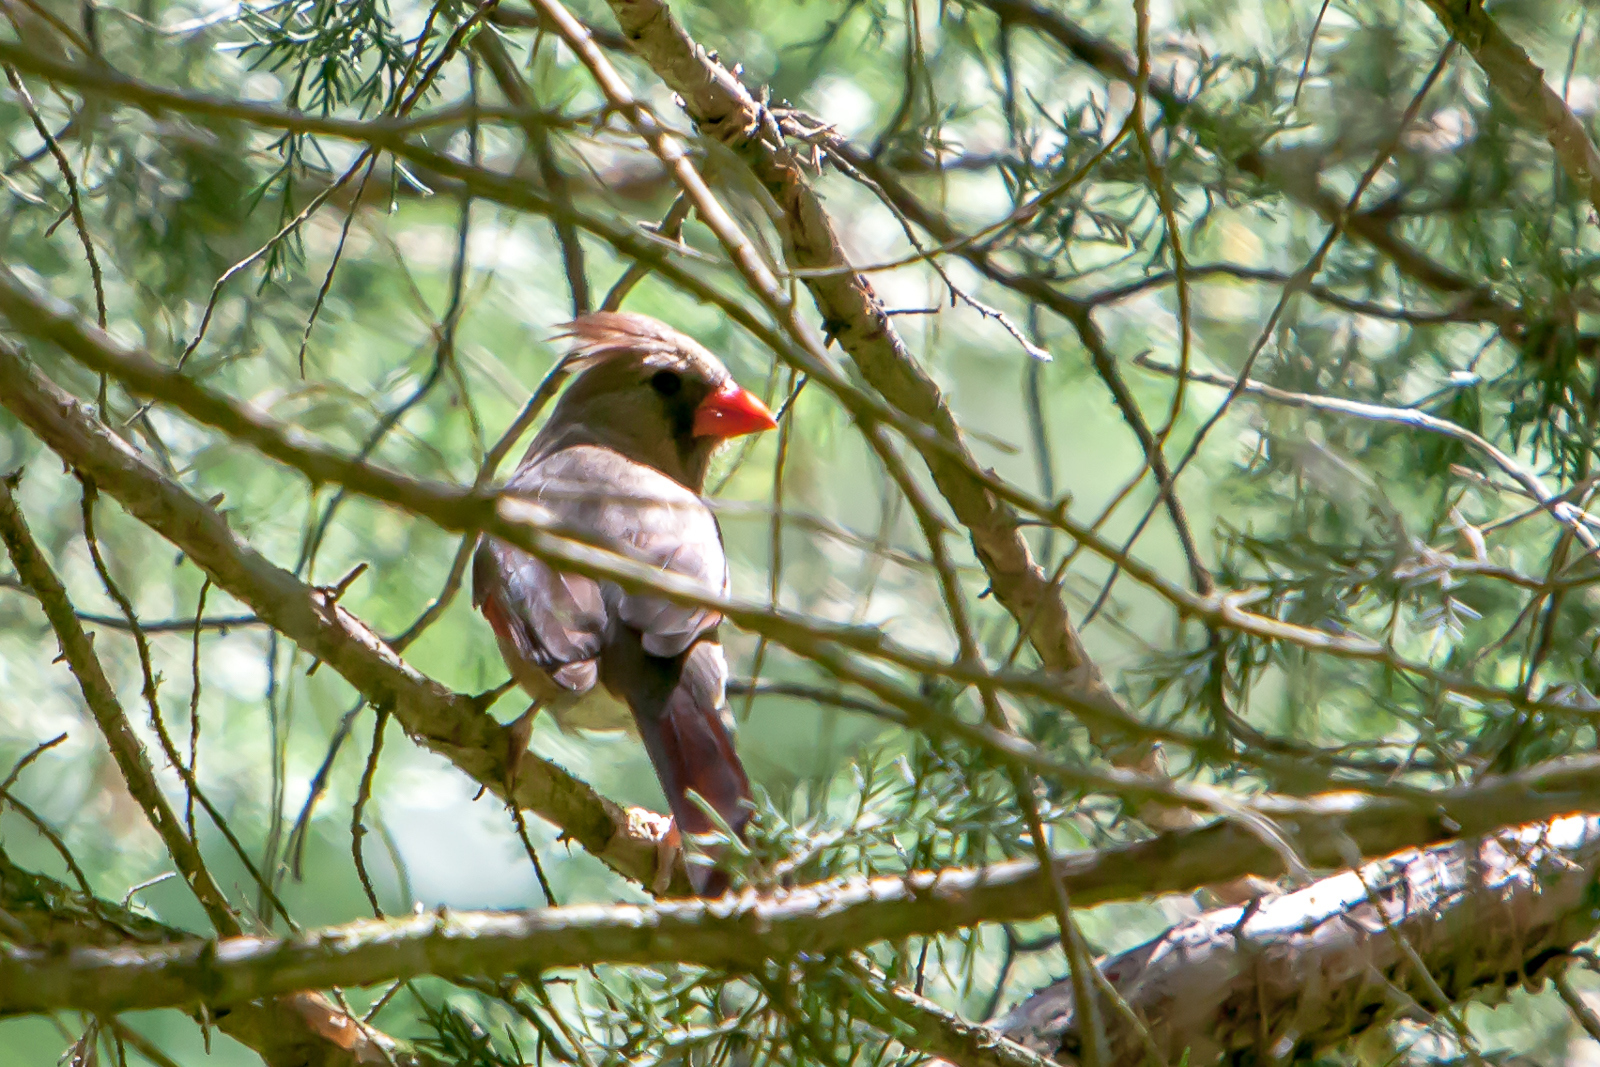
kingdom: Animalia
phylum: Chordata
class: Aves
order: Passeriformes
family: Cardinalidae
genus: Cardinalis
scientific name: Cardinalis cardinalis
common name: Northern cardinal
